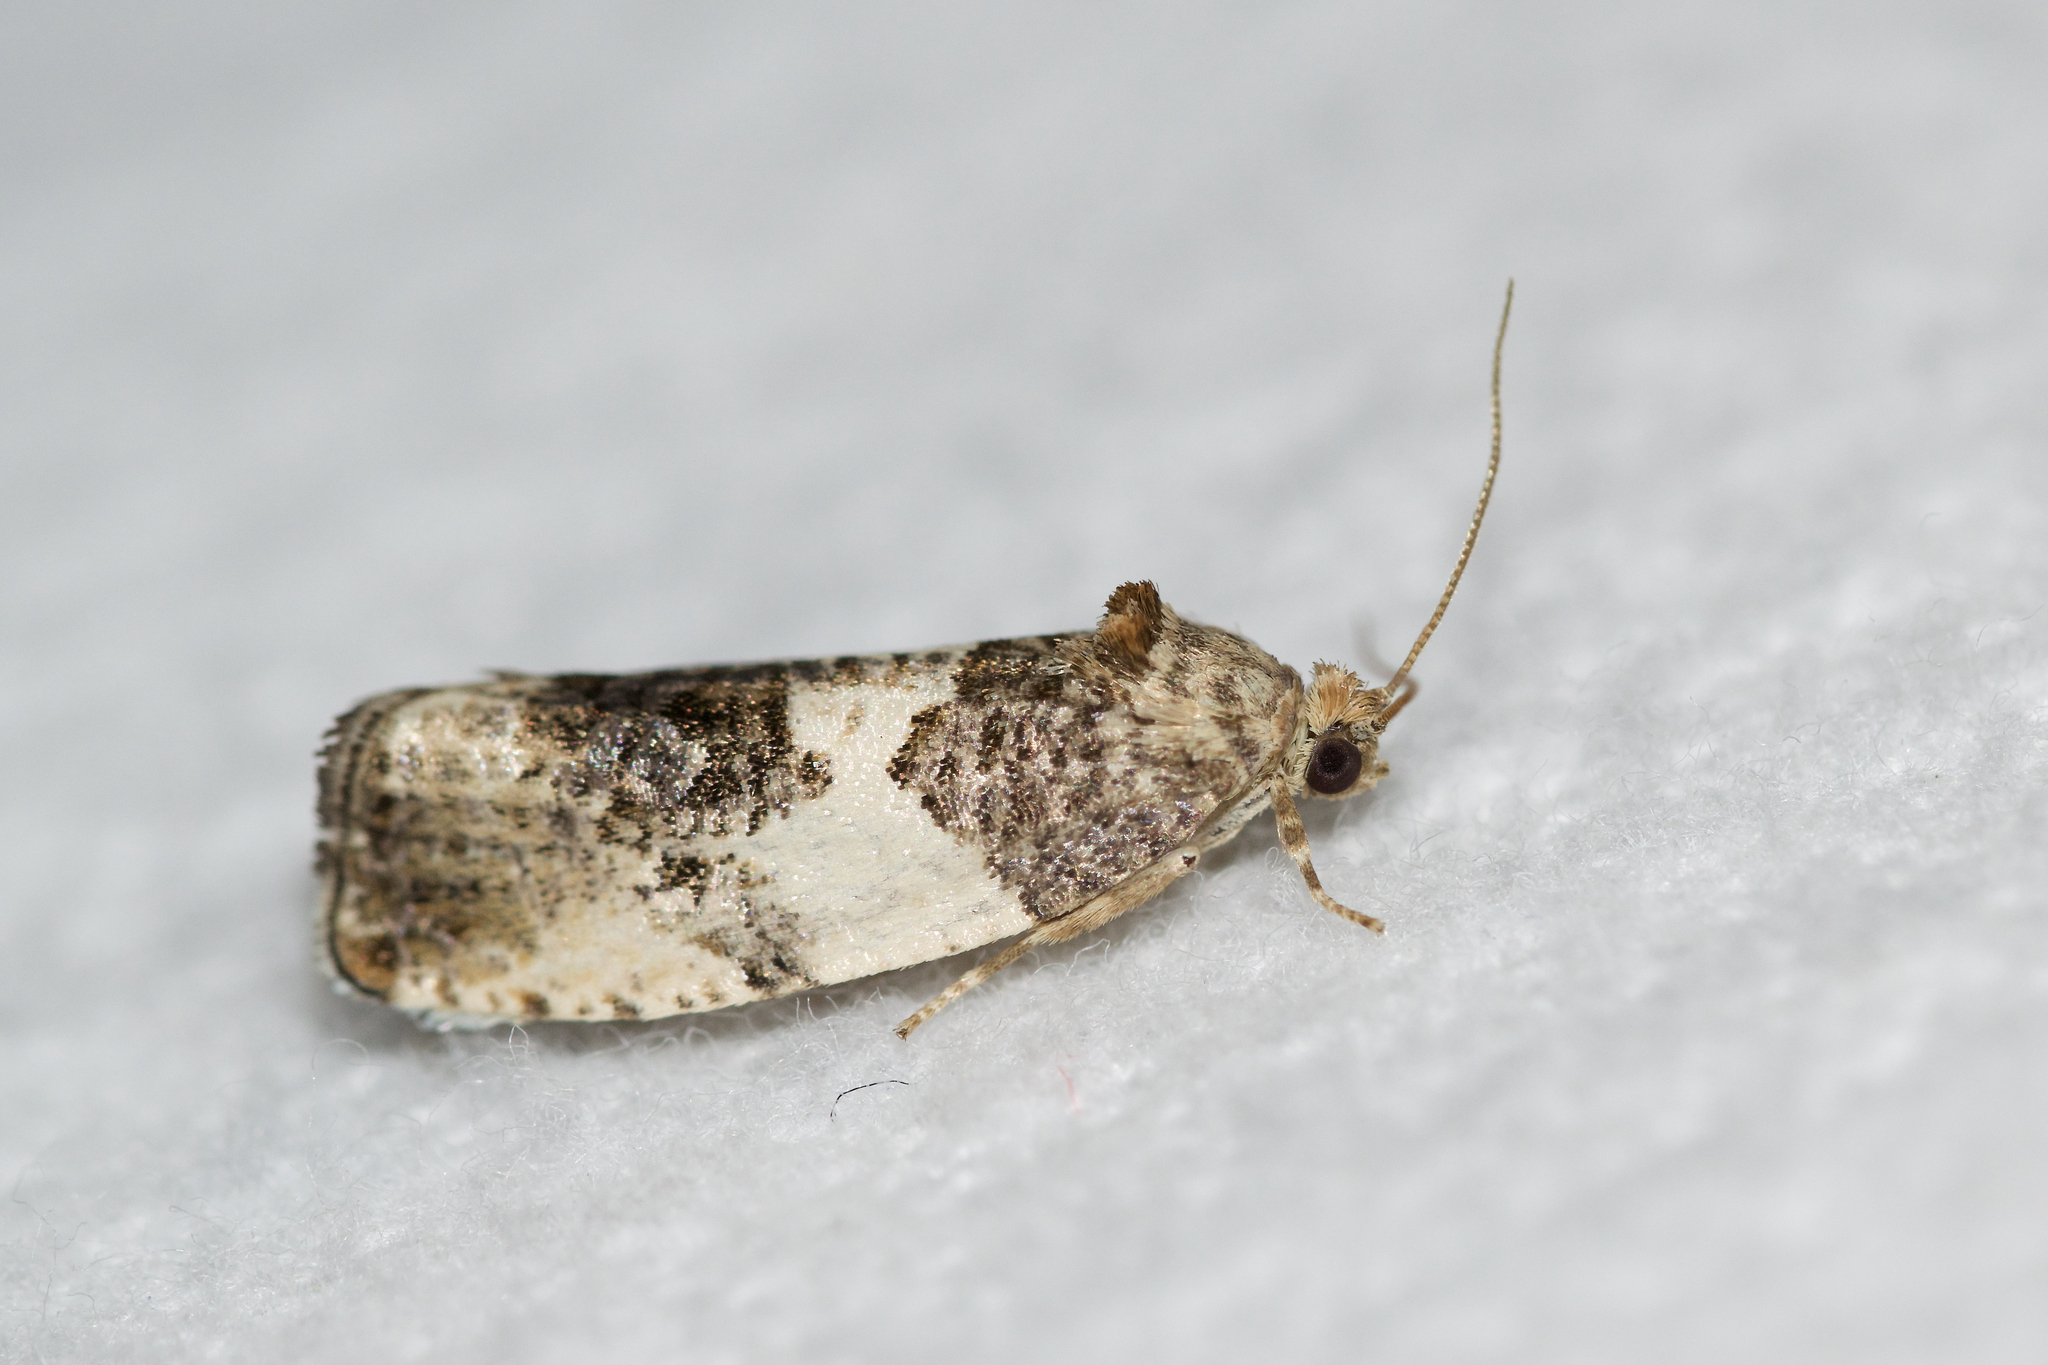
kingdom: Animalia
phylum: Arthropoda
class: Insecta
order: Lepidoptera
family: Tortricidae
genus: Pseudosciaphila
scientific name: Pseudosciaphila duplex
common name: Poplar leafroller moth
